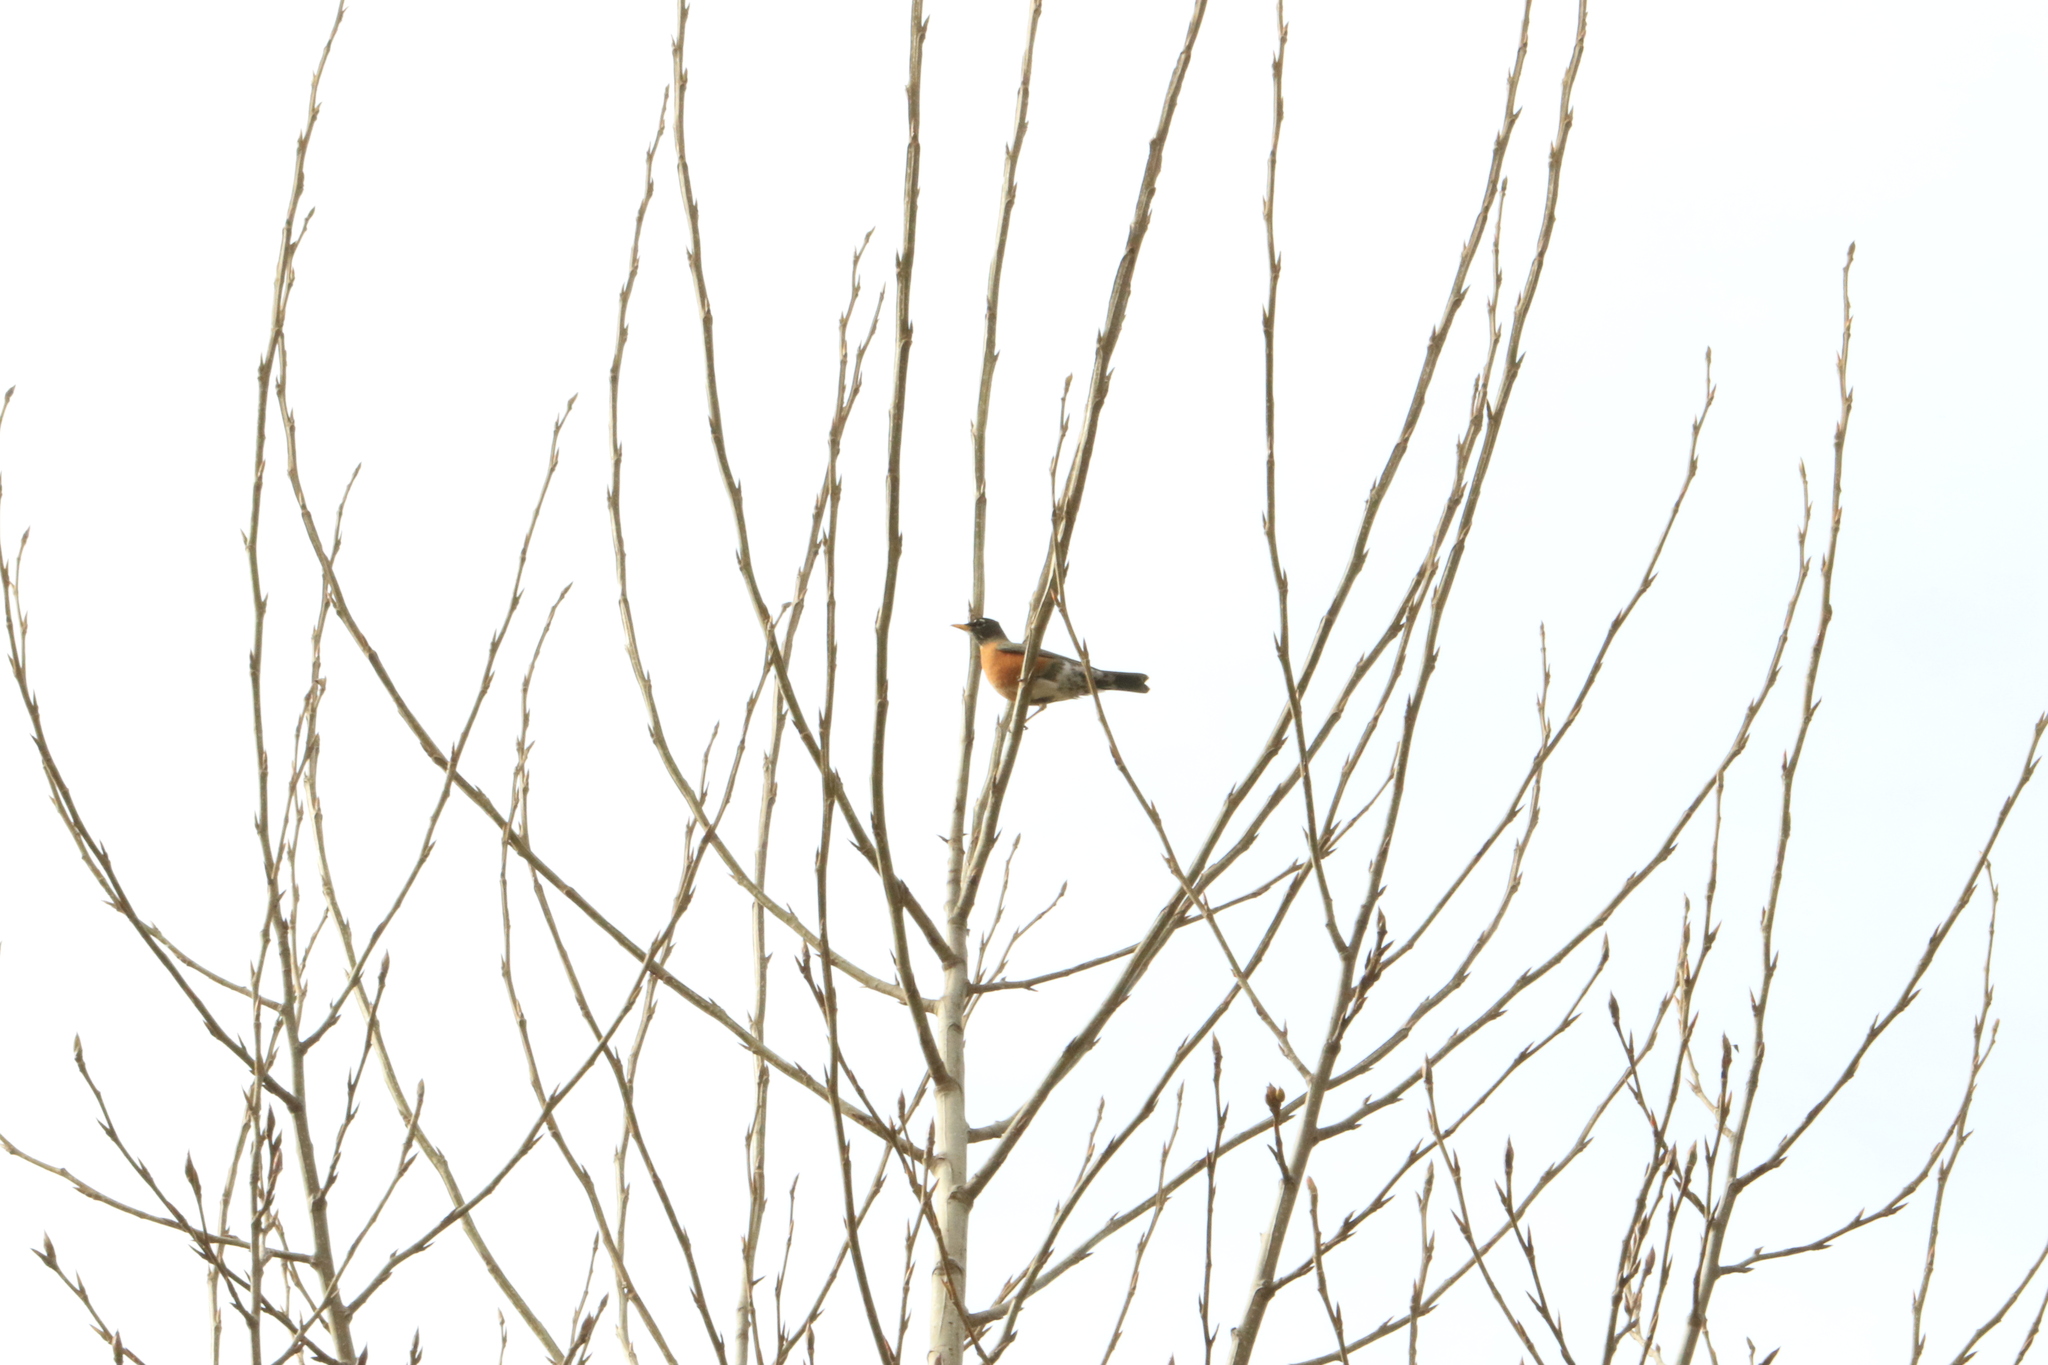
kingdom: Animalia
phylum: Chordata
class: Aves
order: Passeriformes
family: Turdidae
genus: Turdus
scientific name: Turdus migratorius
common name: American robin
